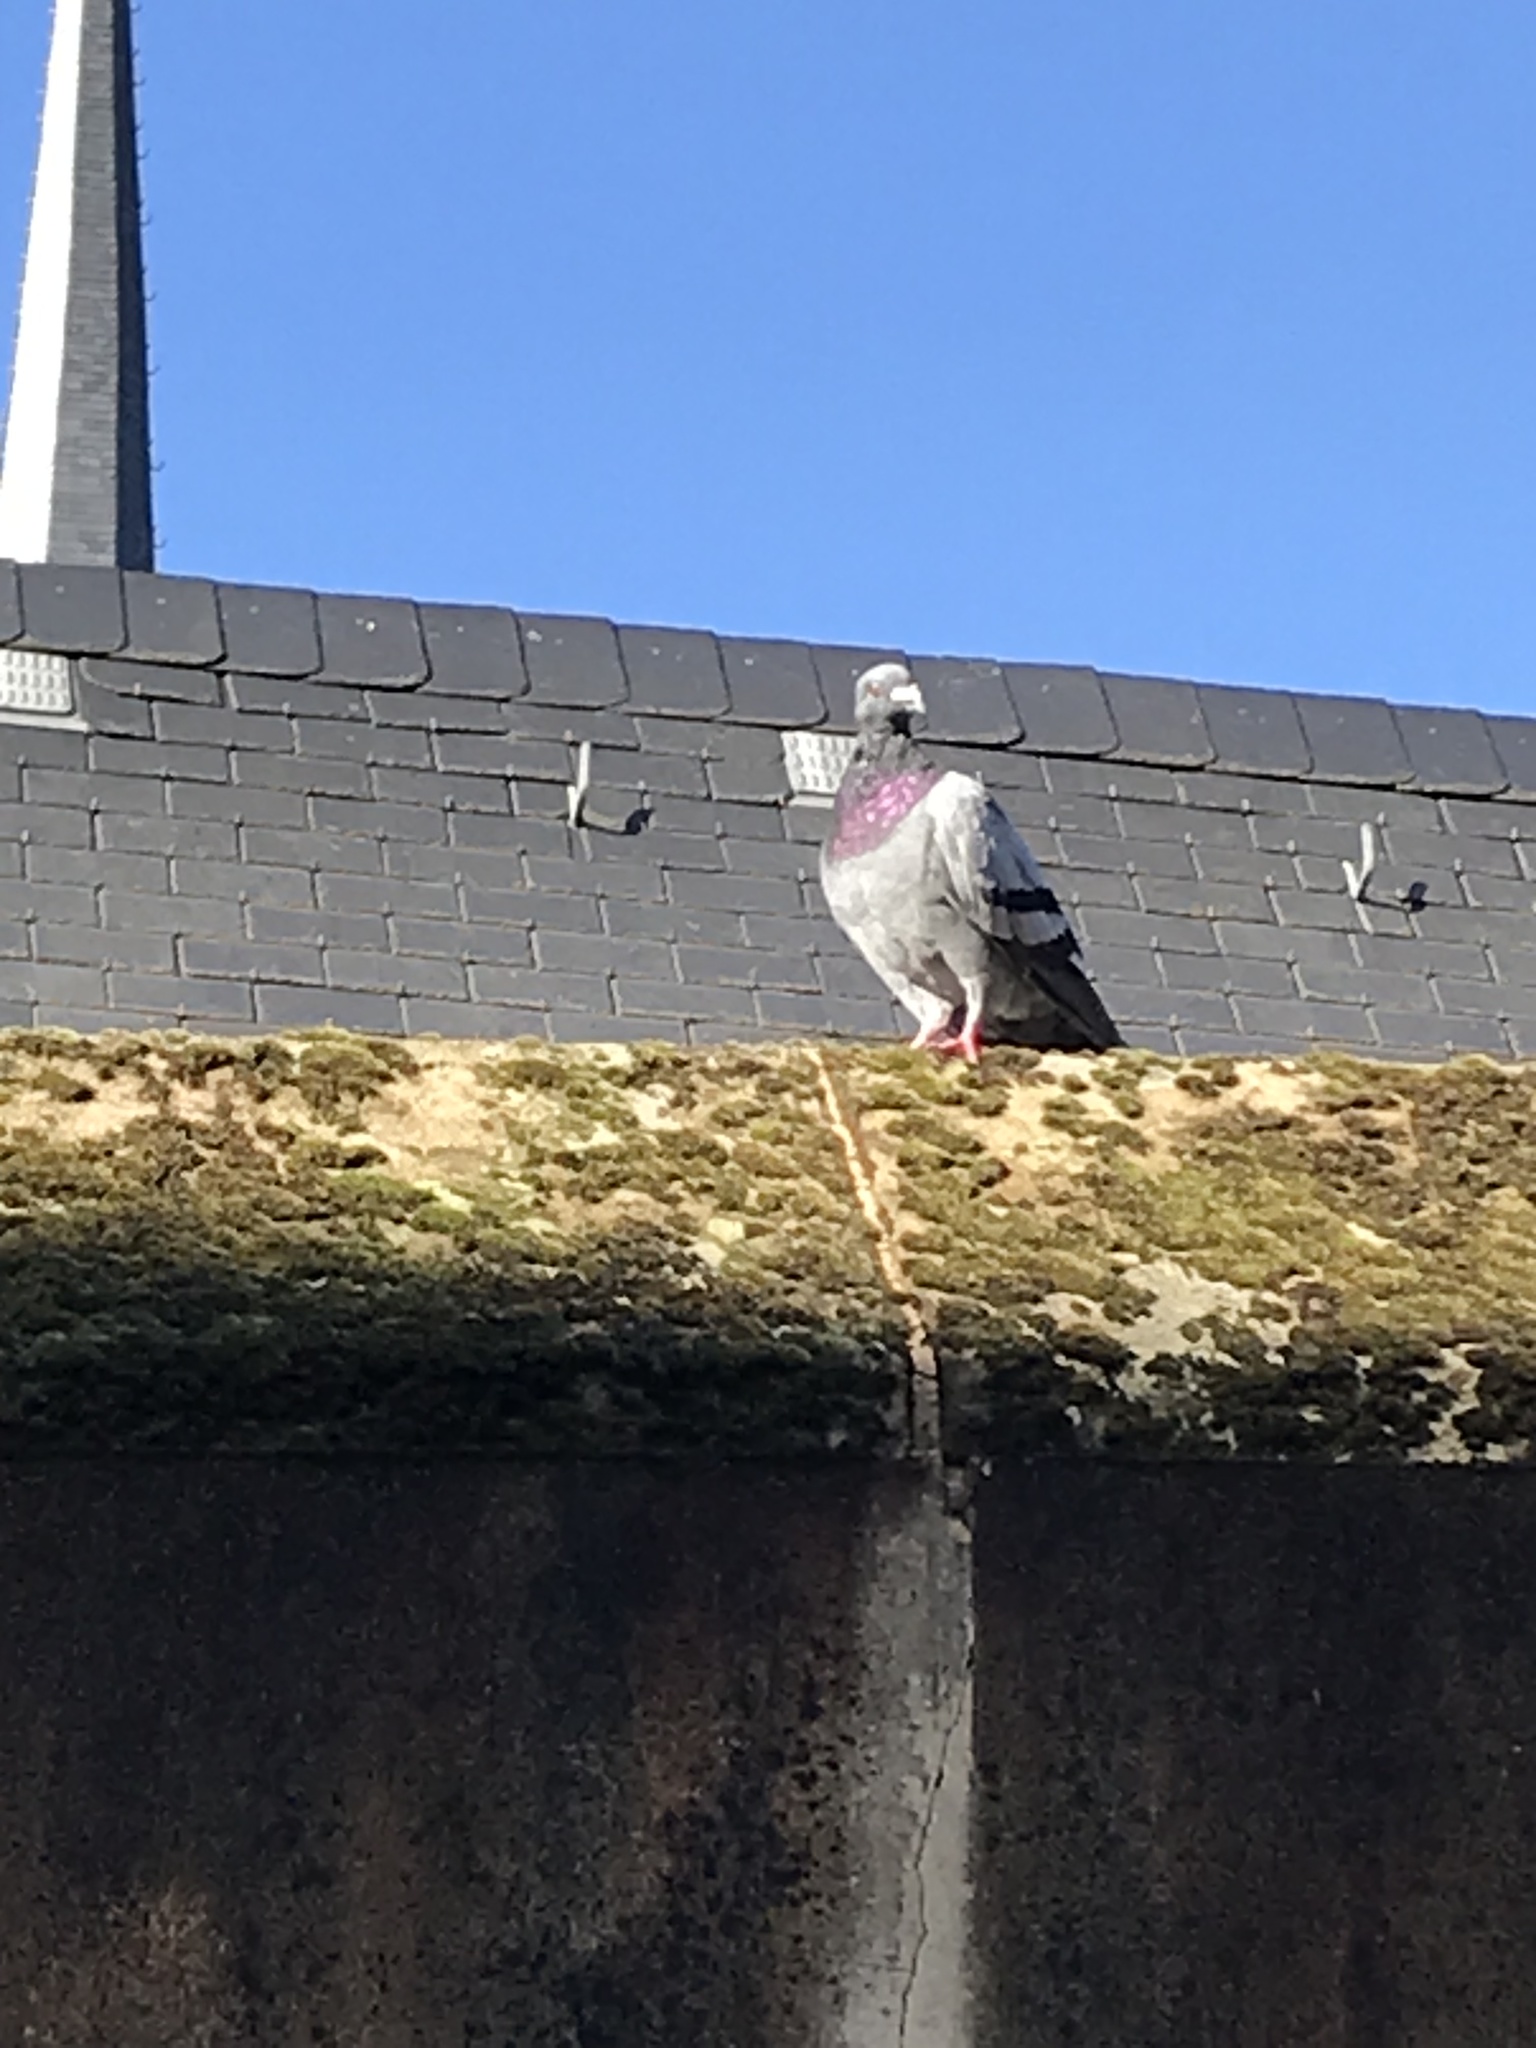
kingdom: Animalia
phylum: Chordata
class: Aves
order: Columbiformes
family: Columbidae
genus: Columba
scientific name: Columba livia
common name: Rock pigeon
